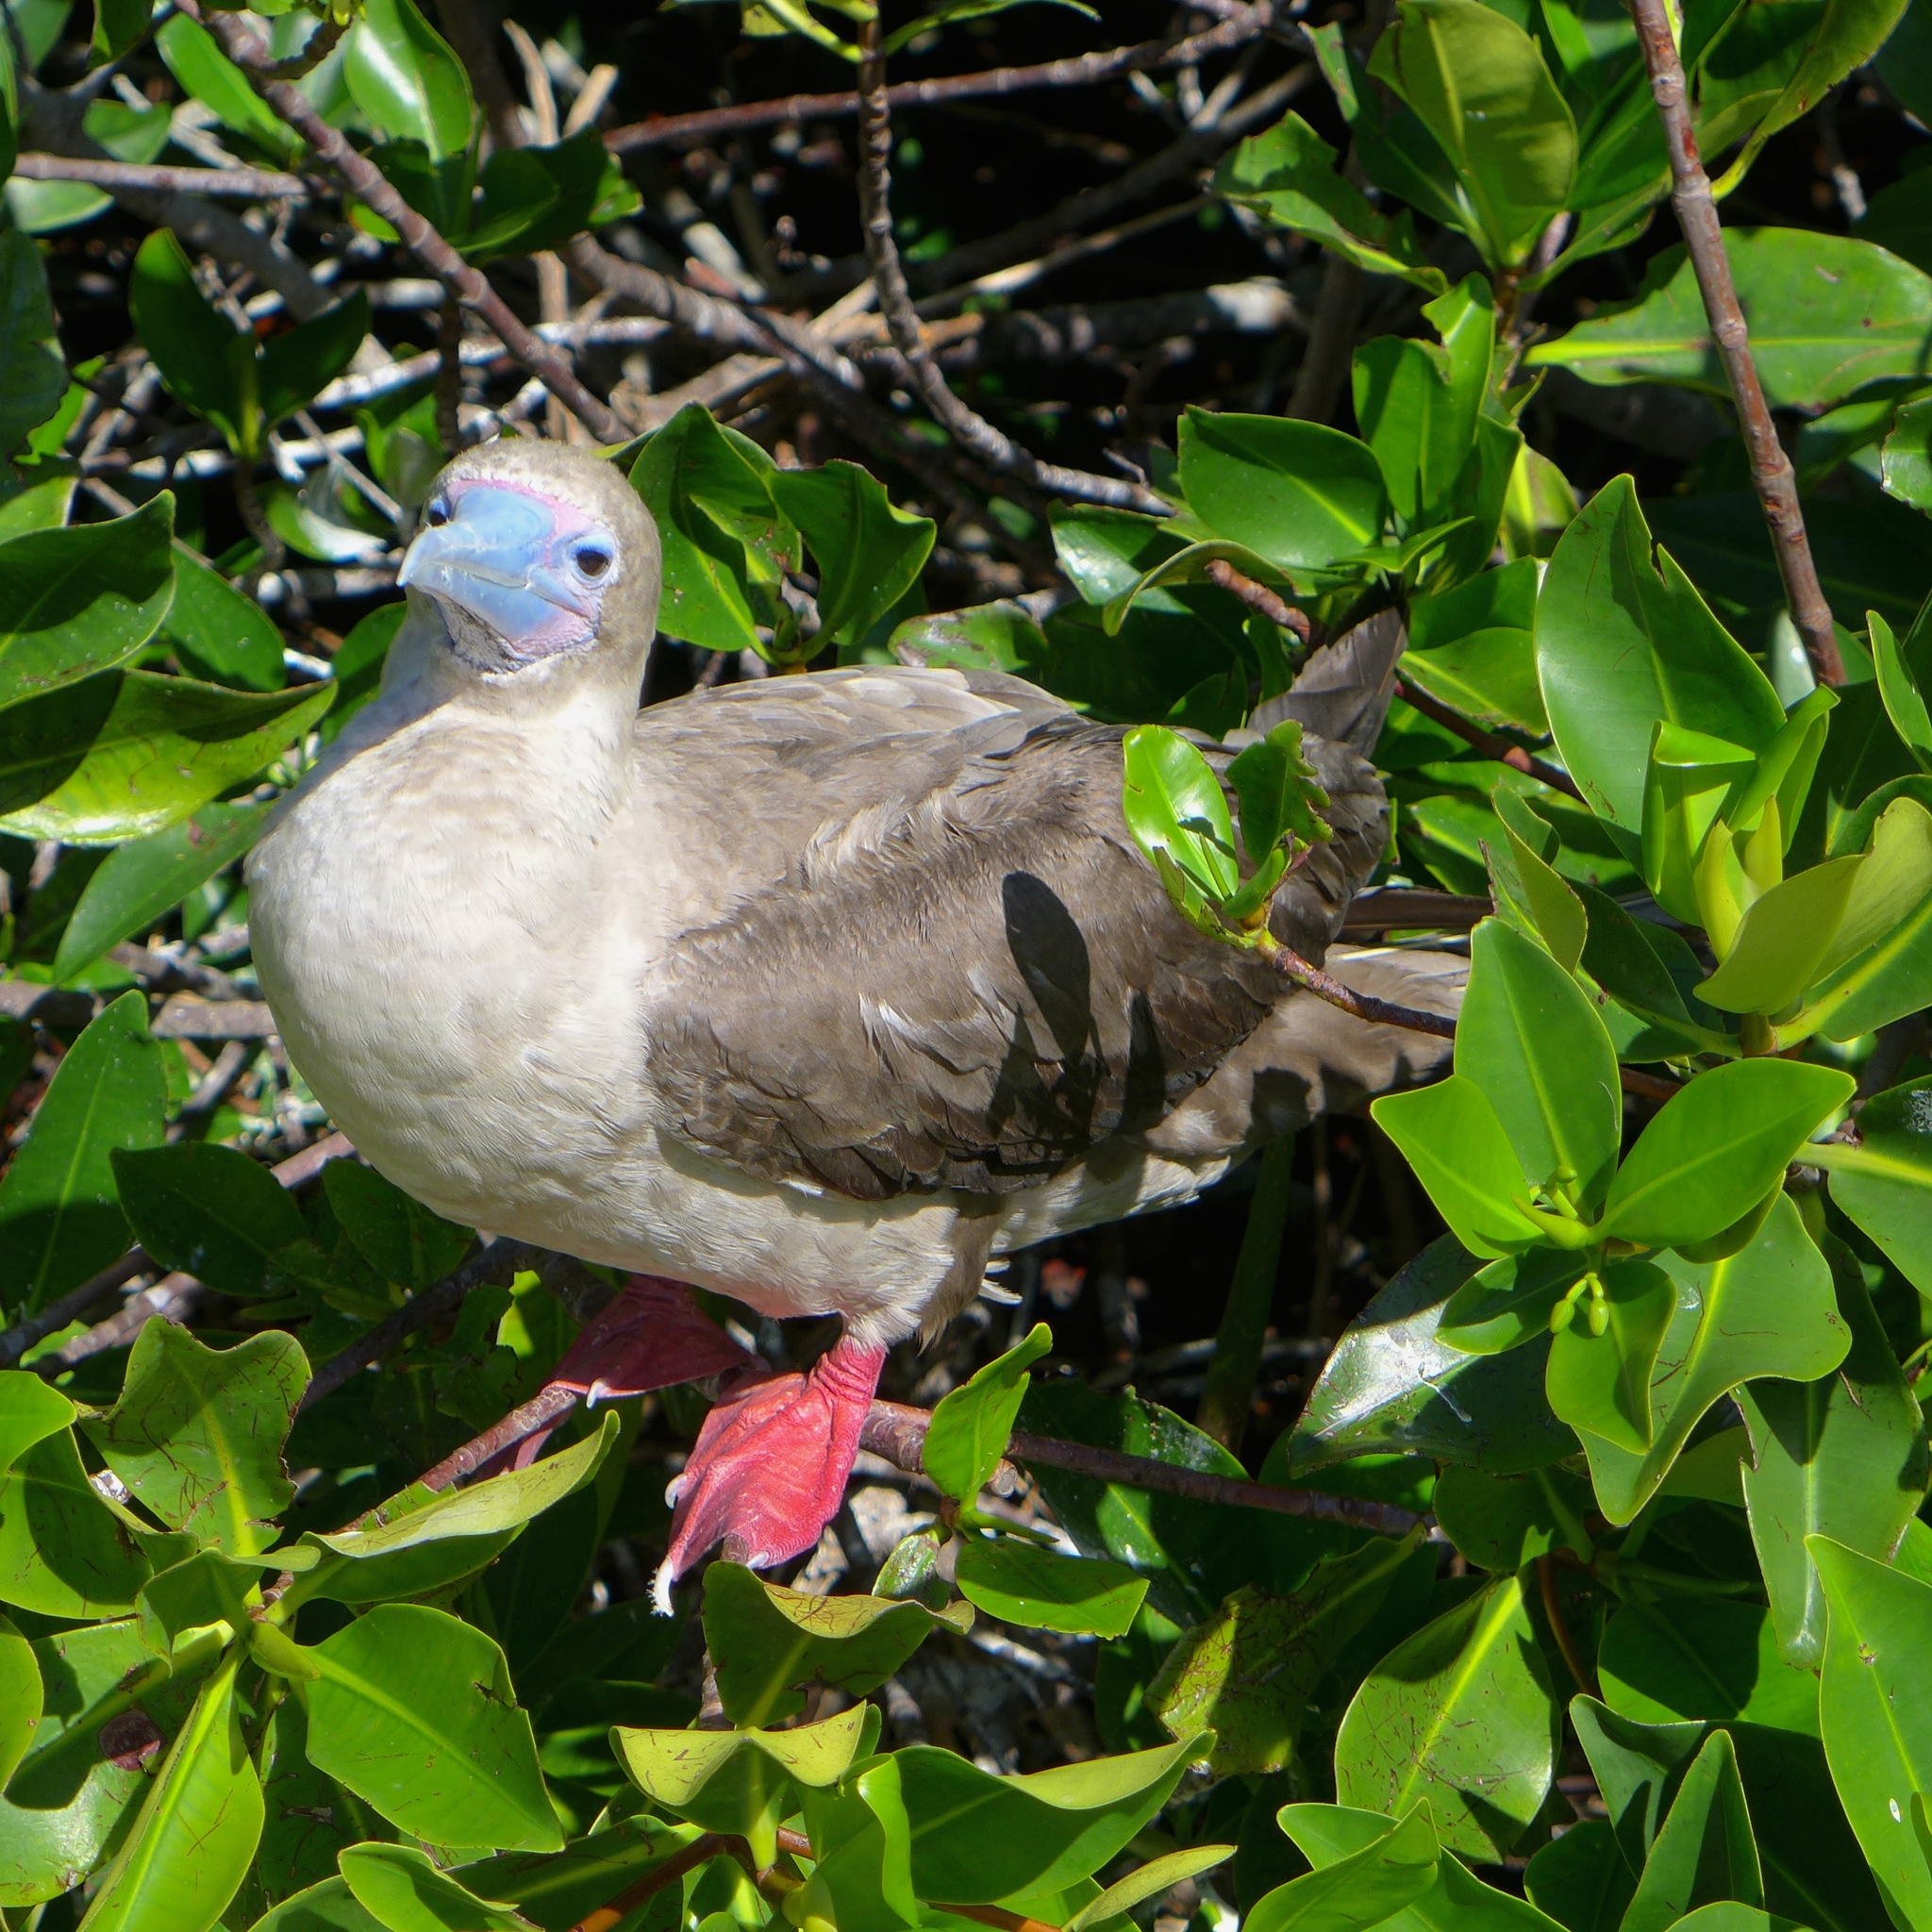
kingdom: Animalia
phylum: Chordata
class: Aves
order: Suliformes
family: Sulidae
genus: Sula
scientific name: Sula sula
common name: Red-footed booby
